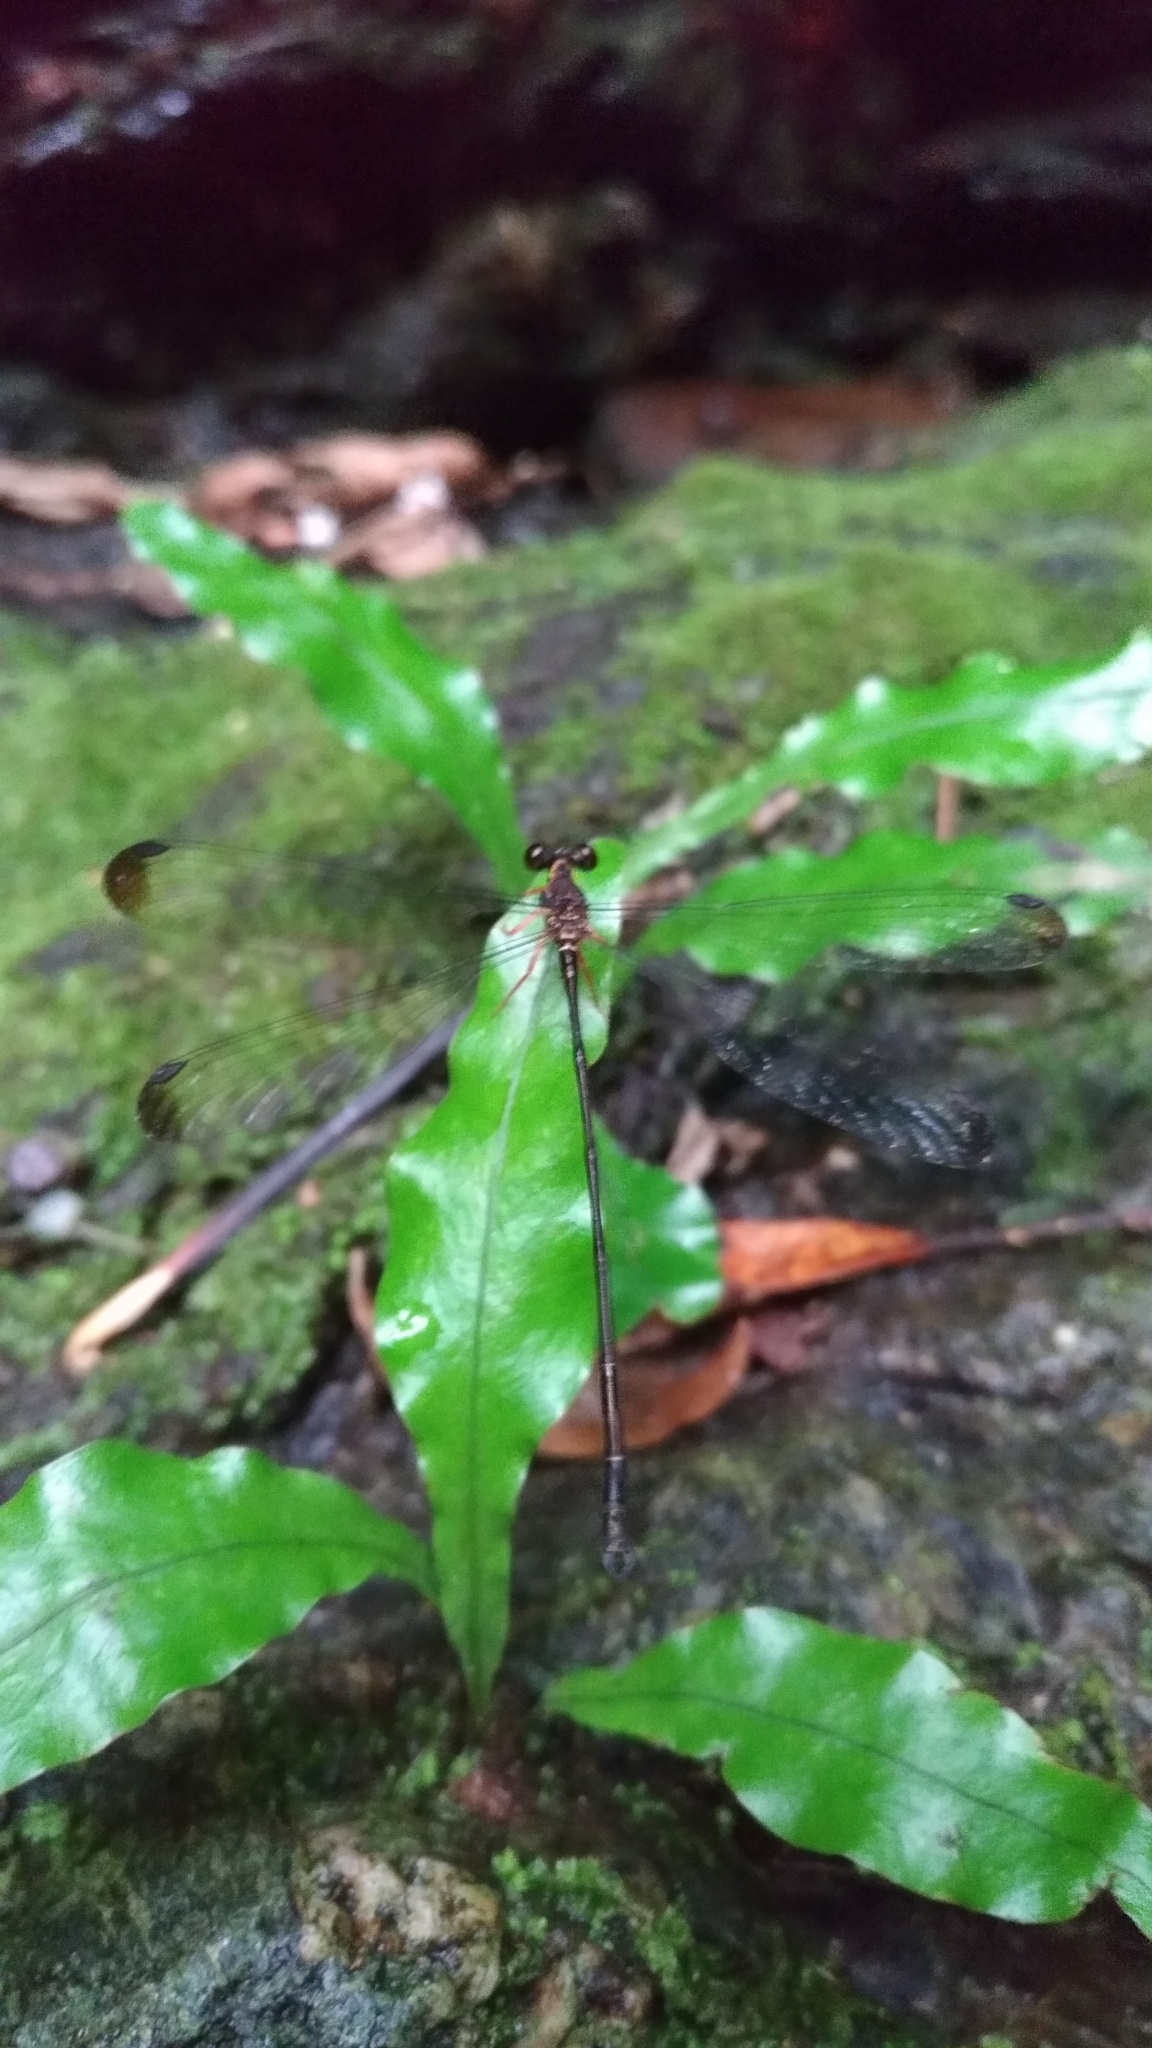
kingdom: Animalia
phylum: Arthropoda
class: Insecta
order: Odonata
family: Megapodagrionidae
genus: Rhipidolestes
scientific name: Rhipidolestes okinawanus
